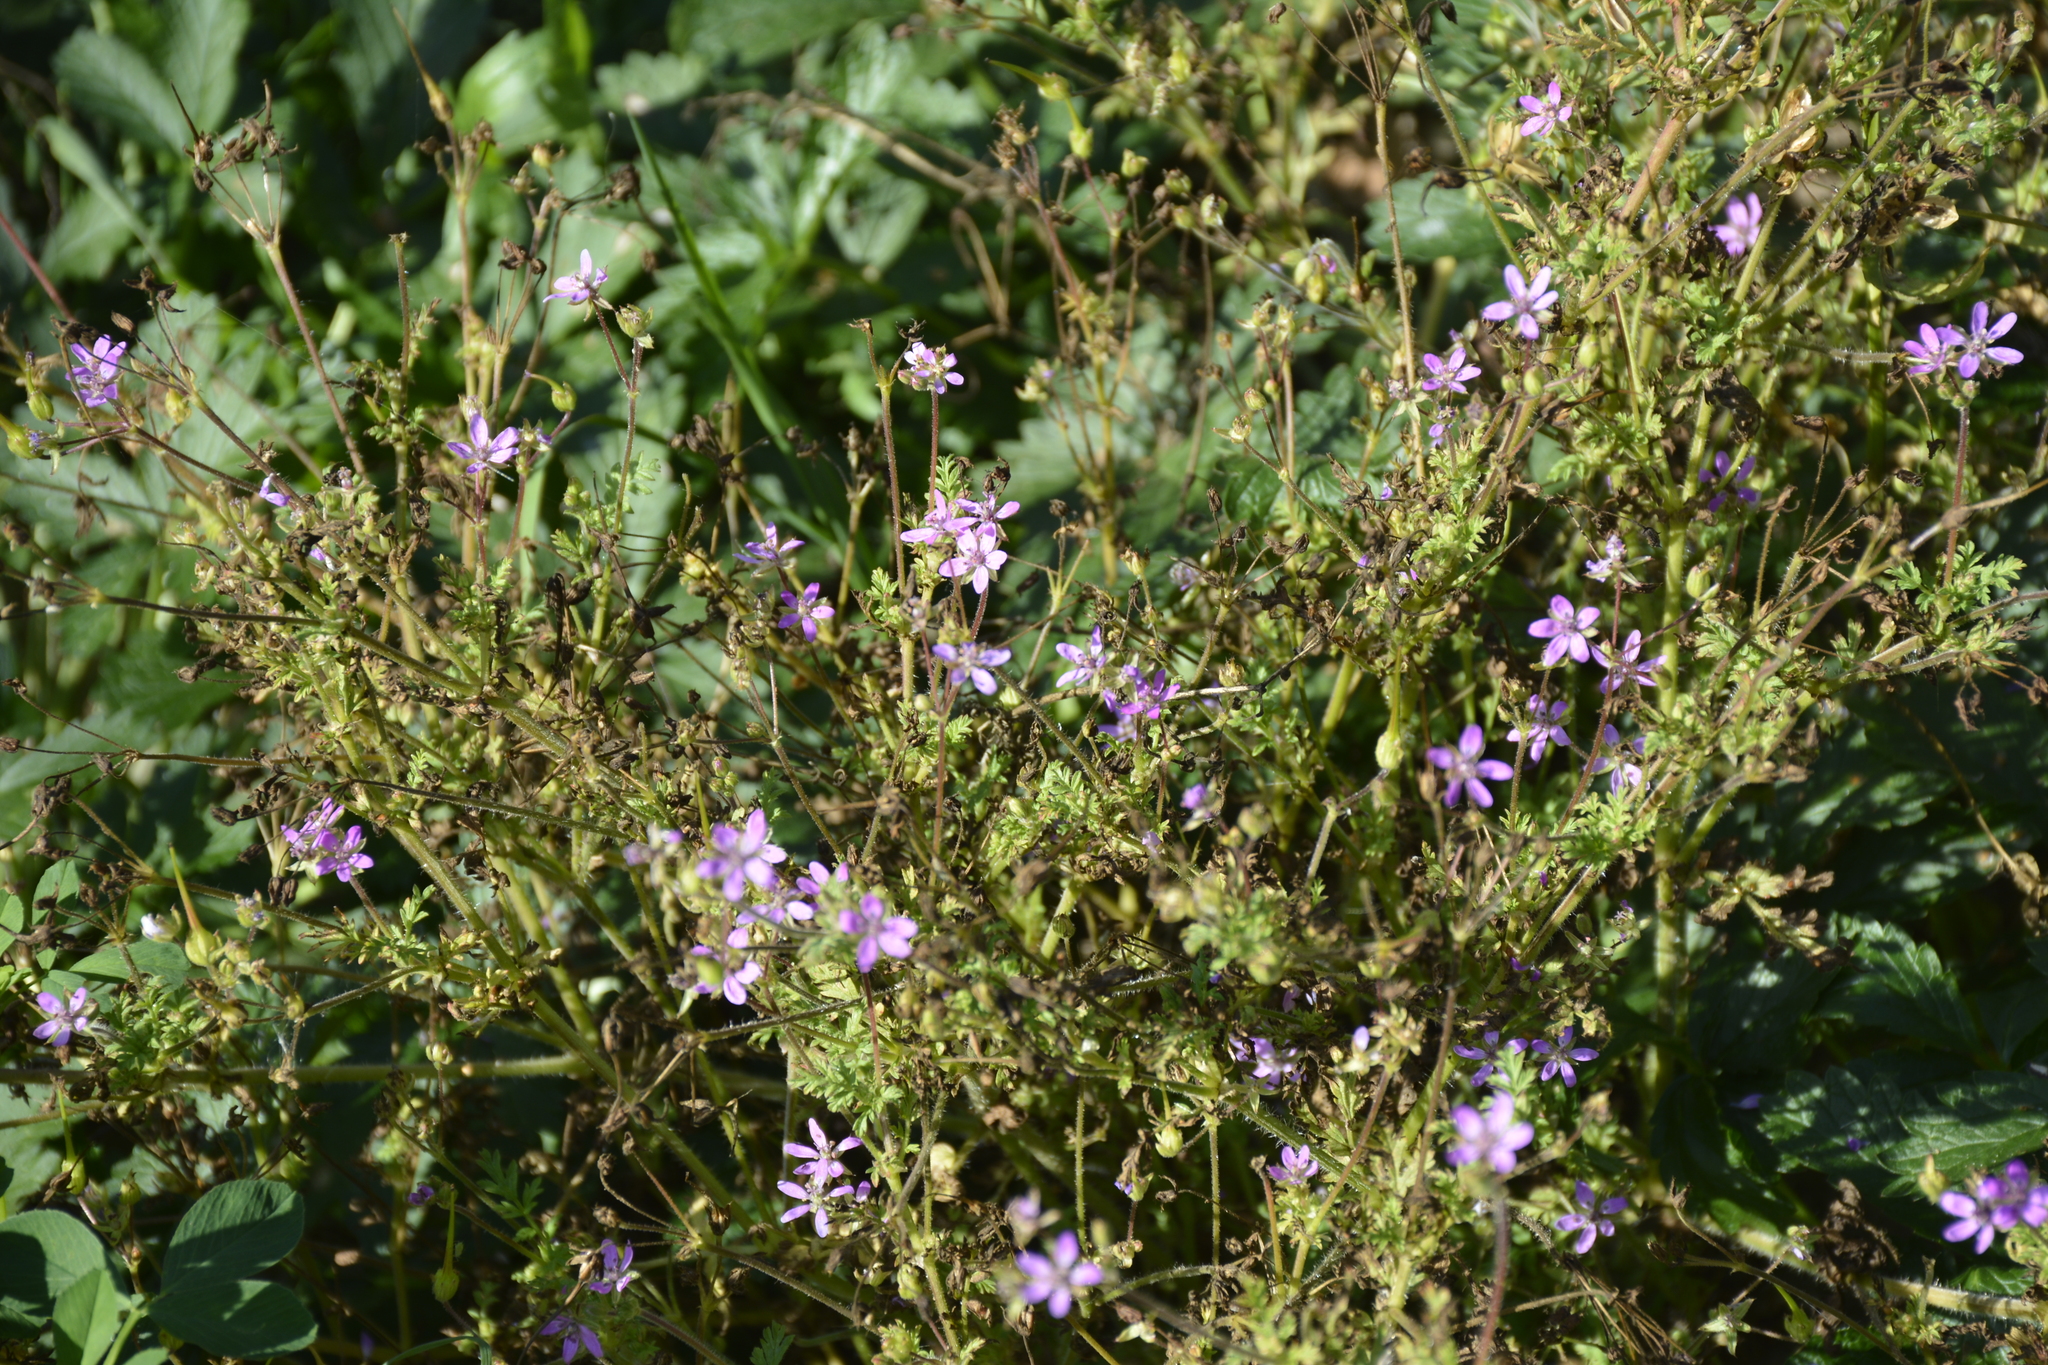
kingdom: Plantae
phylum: Tracheophyta
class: Magnoliopsida
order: Geraniales
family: Geraniaceae
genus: Erodium
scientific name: Erodium cicutarium
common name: Common stork's-bill
